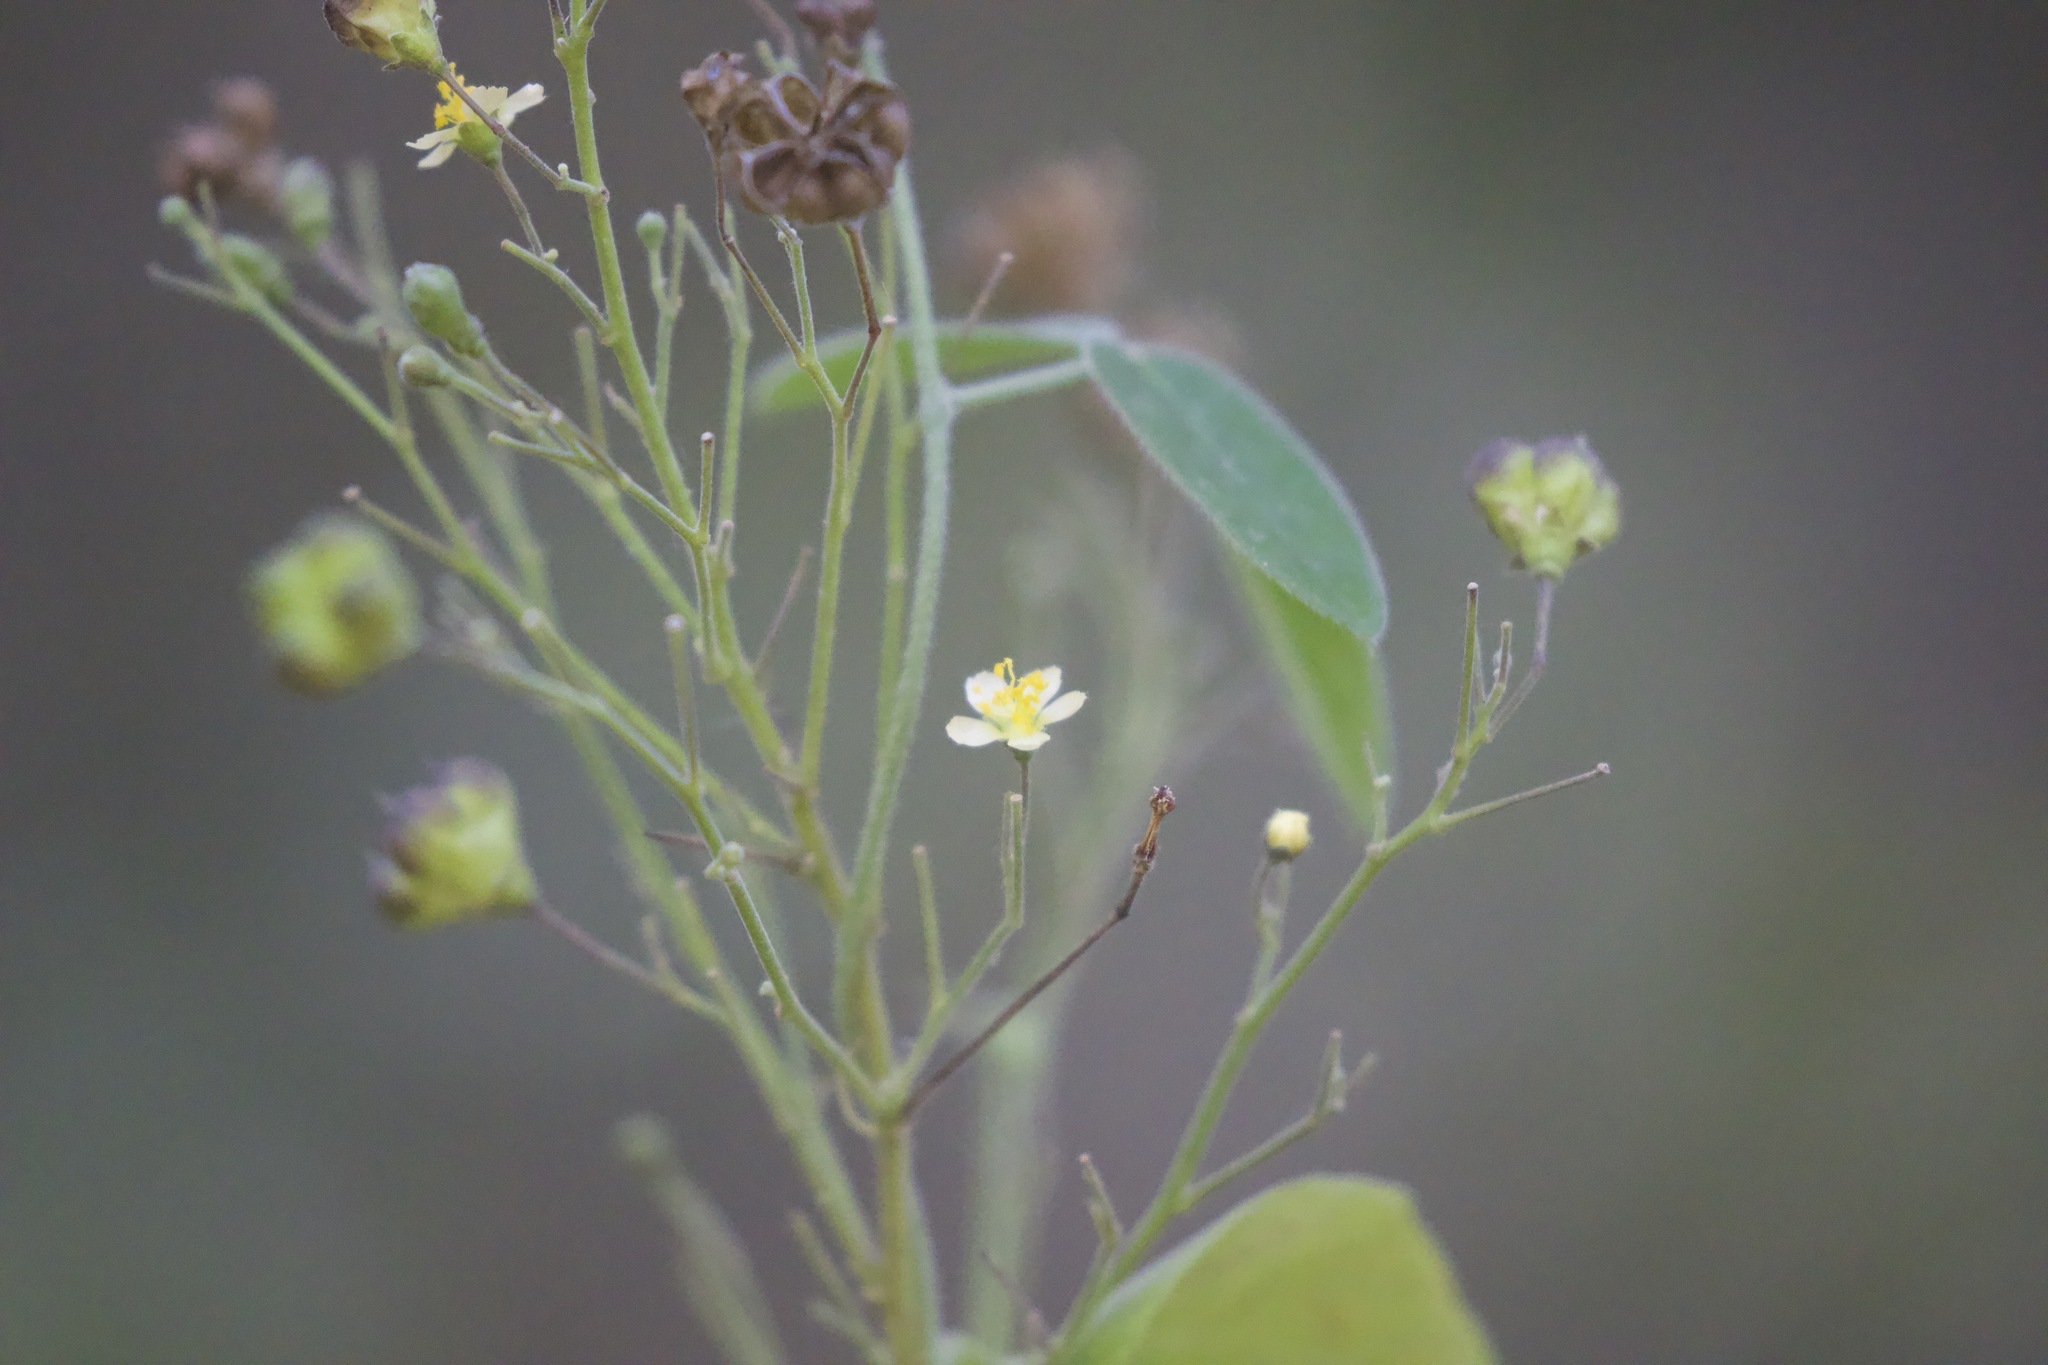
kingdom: Plantae
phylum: Tracheophyta
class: Magnoliopsida
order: Malvales
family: Malvaceae
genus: Wissadula
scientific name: Wissadula amplissima
